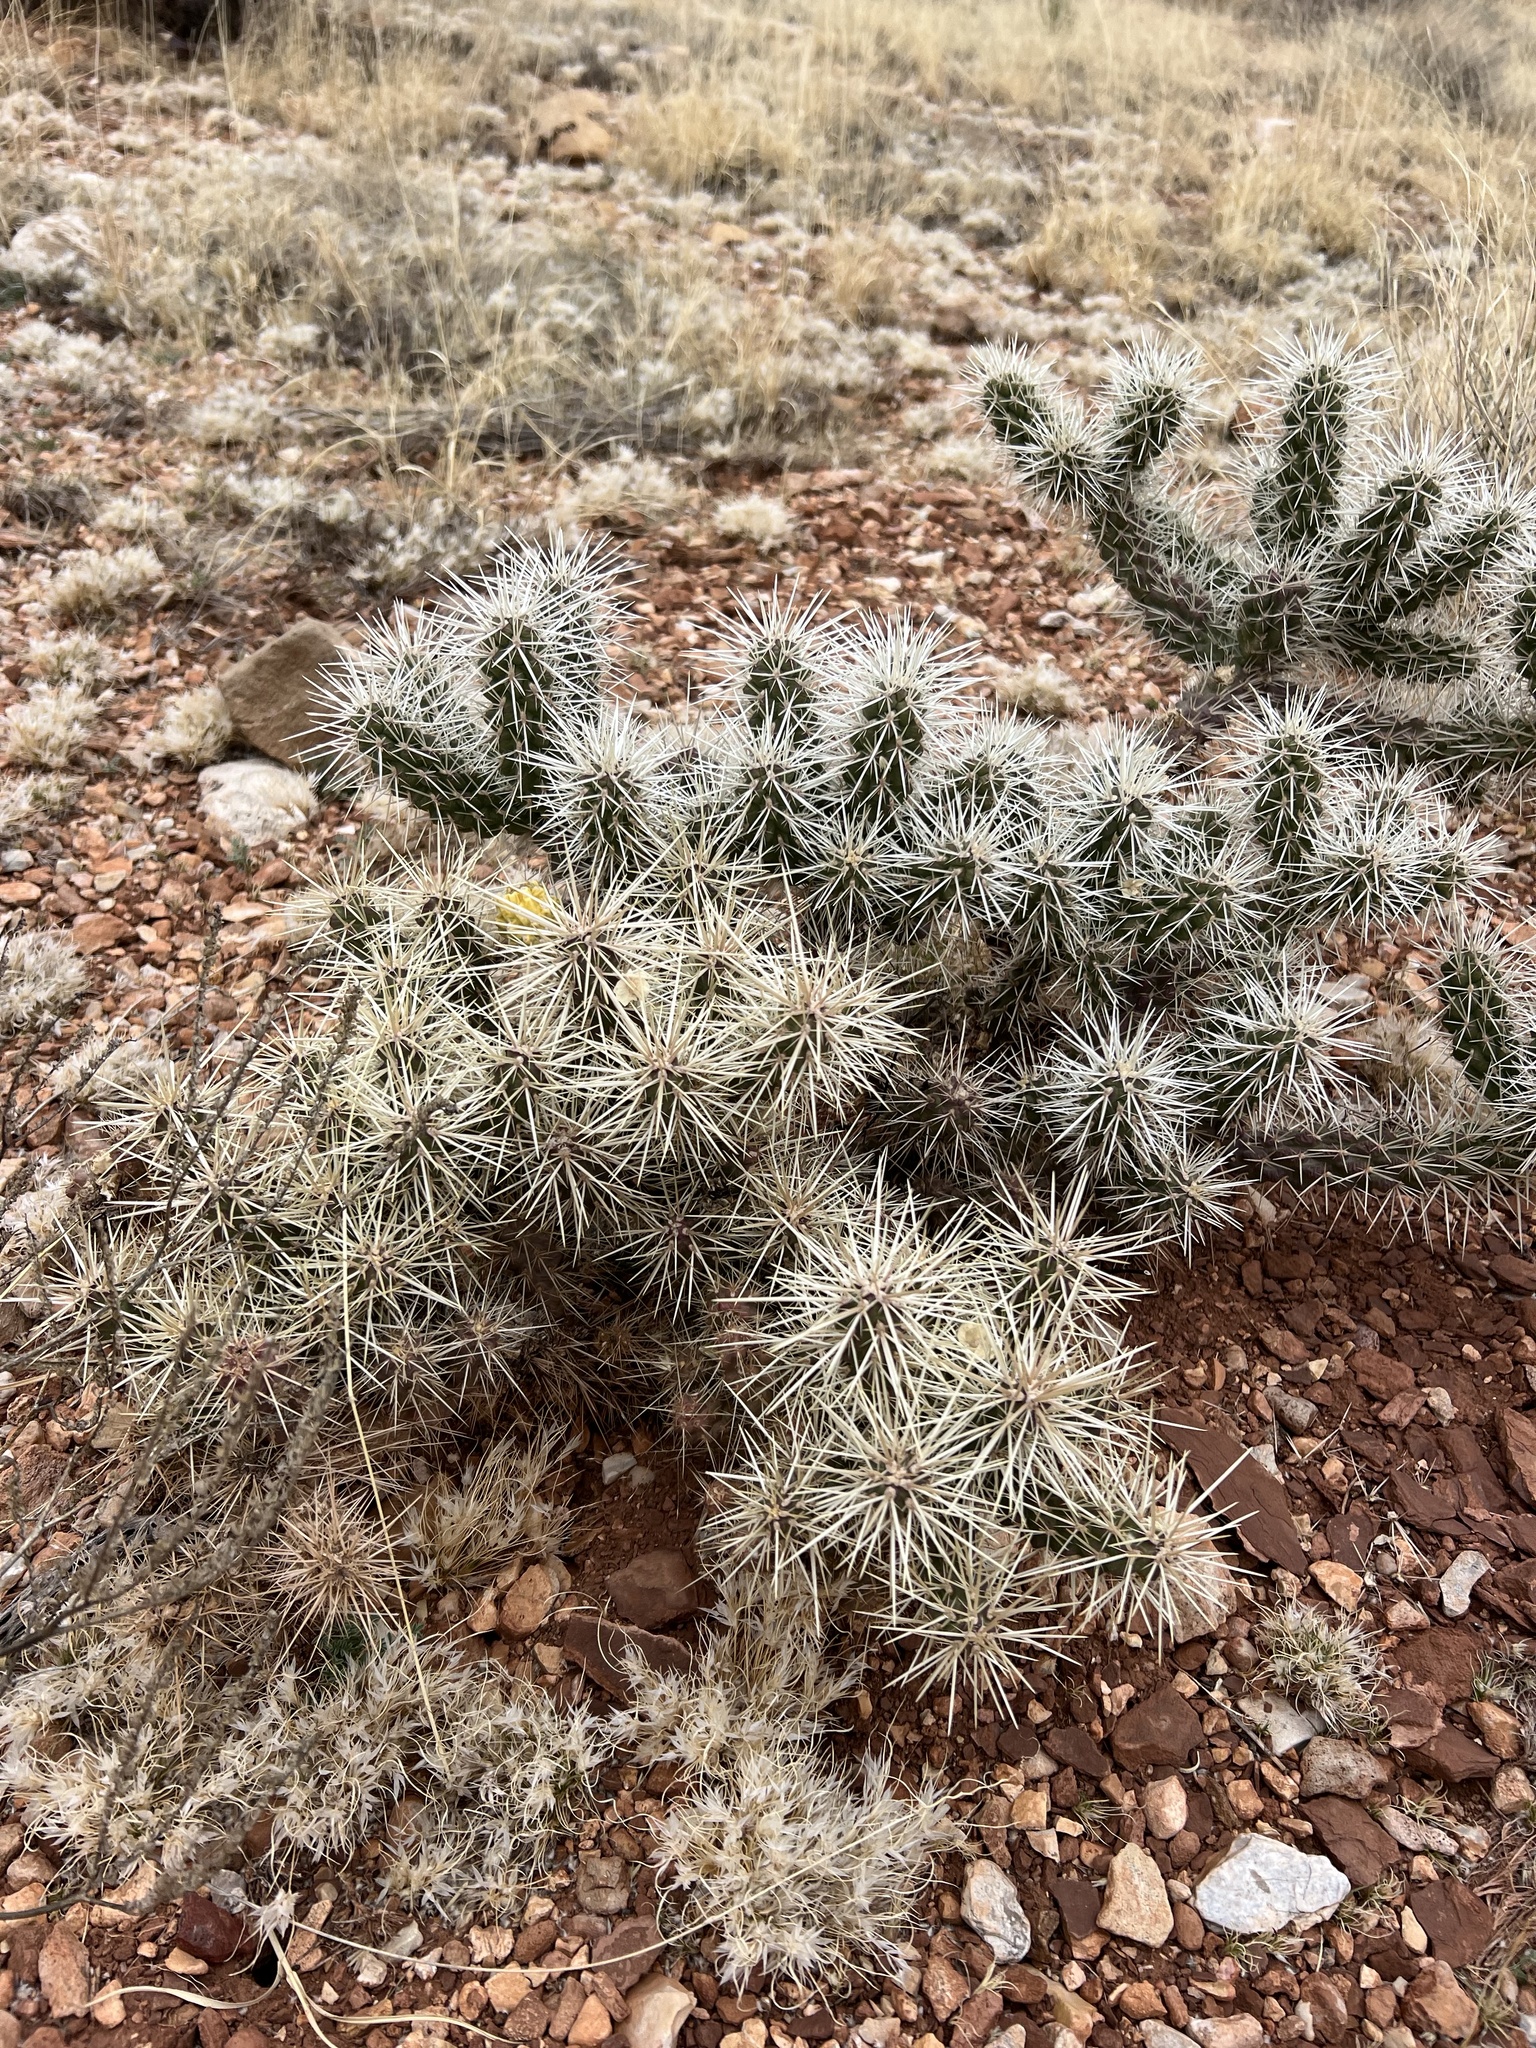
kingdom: Plantae
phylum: Tracheophyta
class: Magnoliopsida
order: Caryophyllales
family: Cactaceae
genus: Cylindropuntia
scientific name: Cylindropuntia whipplei
